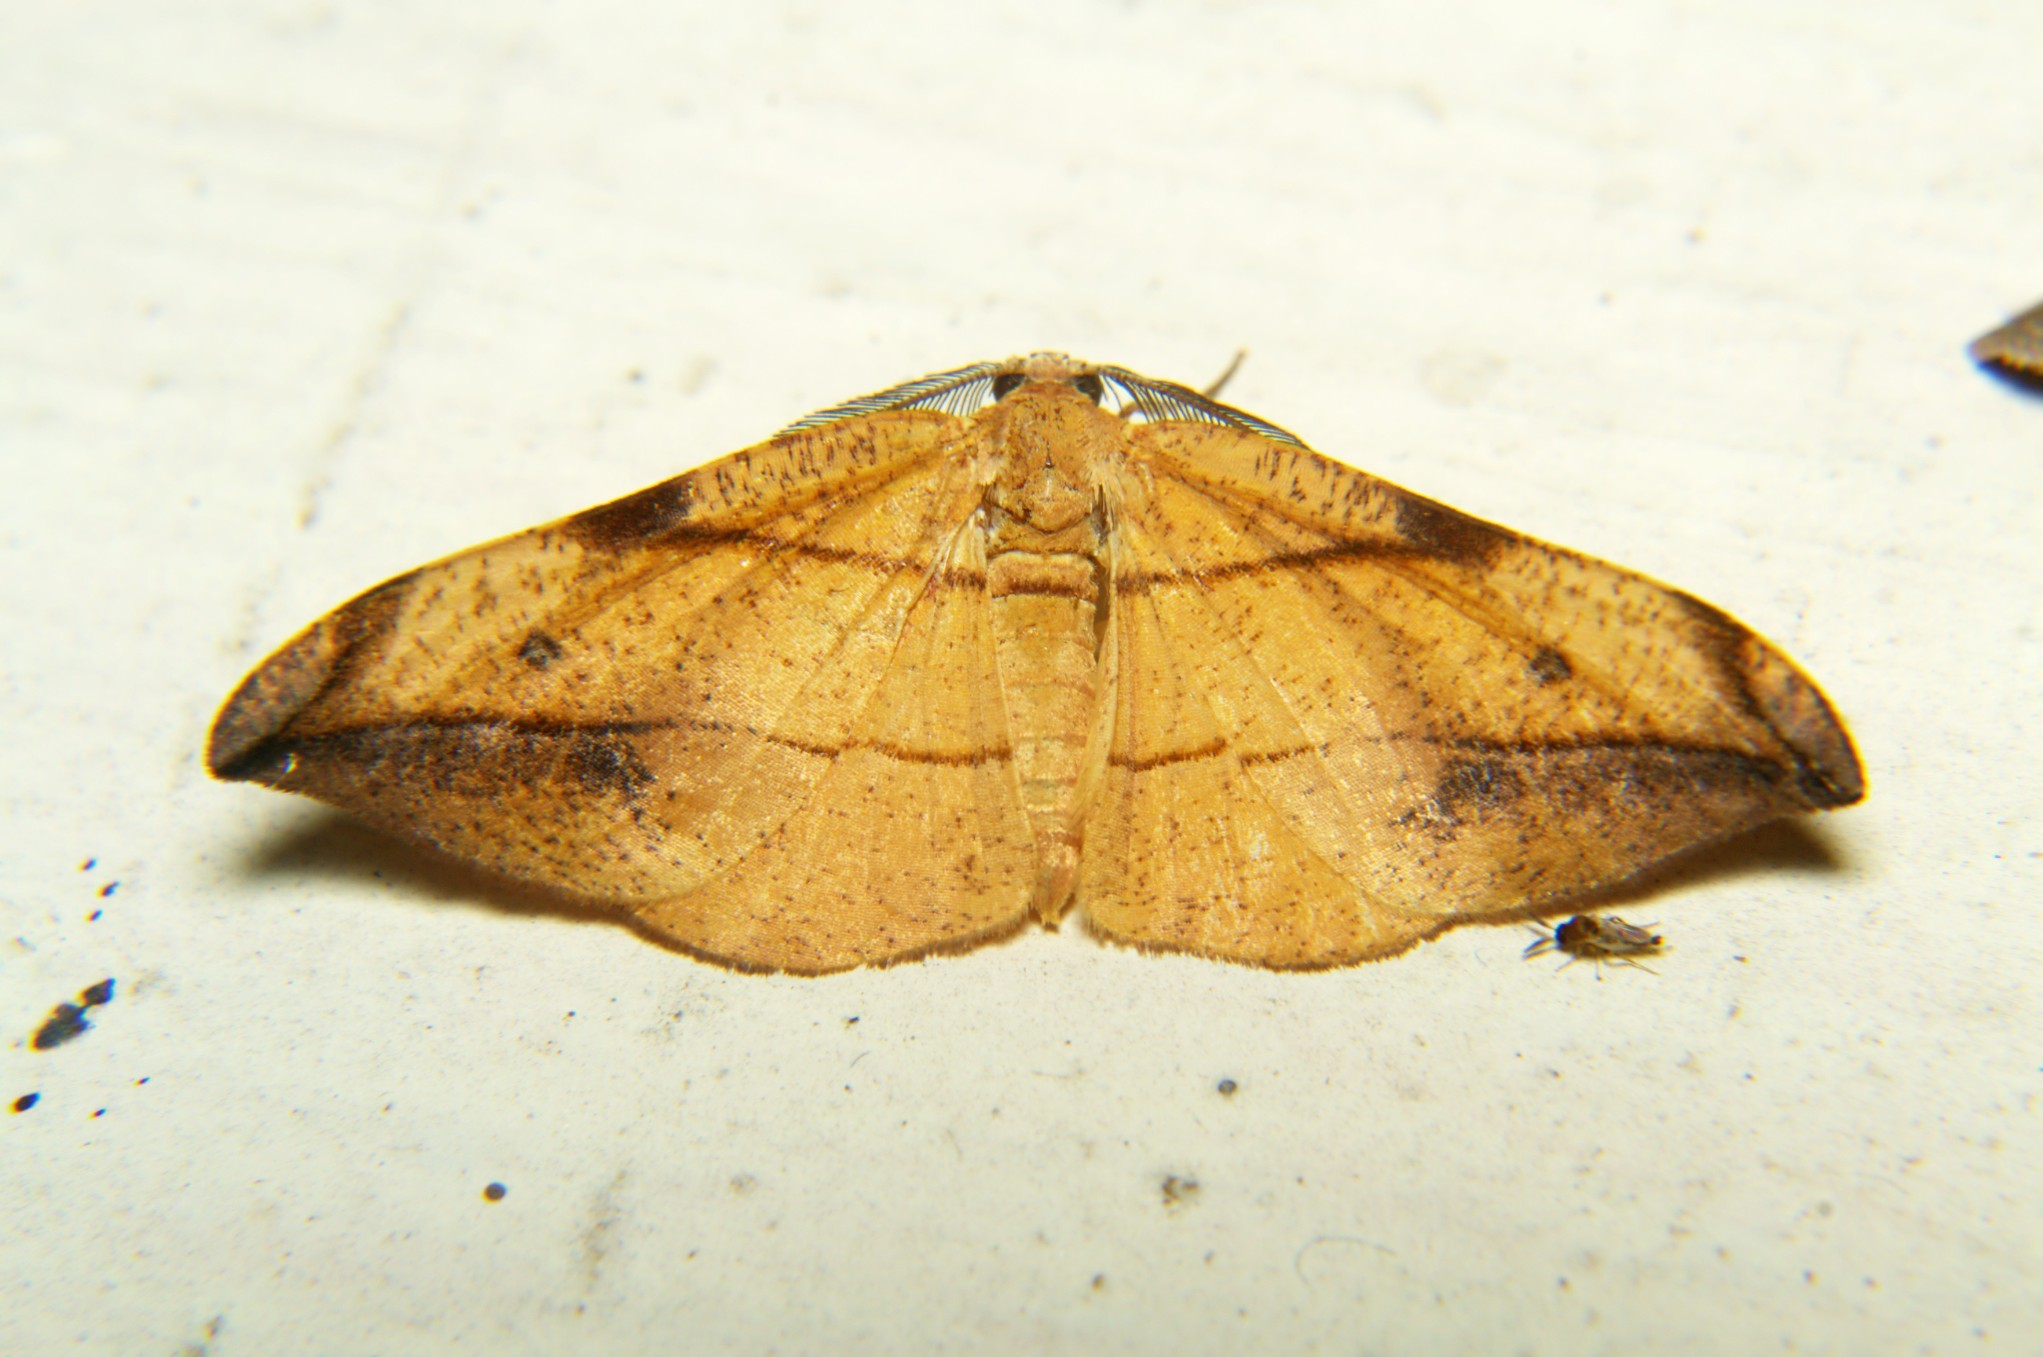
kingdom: Animalia
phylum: Arthropoda
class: Insecta
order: Lepidoptera
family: Geometridae
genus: Hypochrosis
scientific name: Hypochrosis hyadaria
